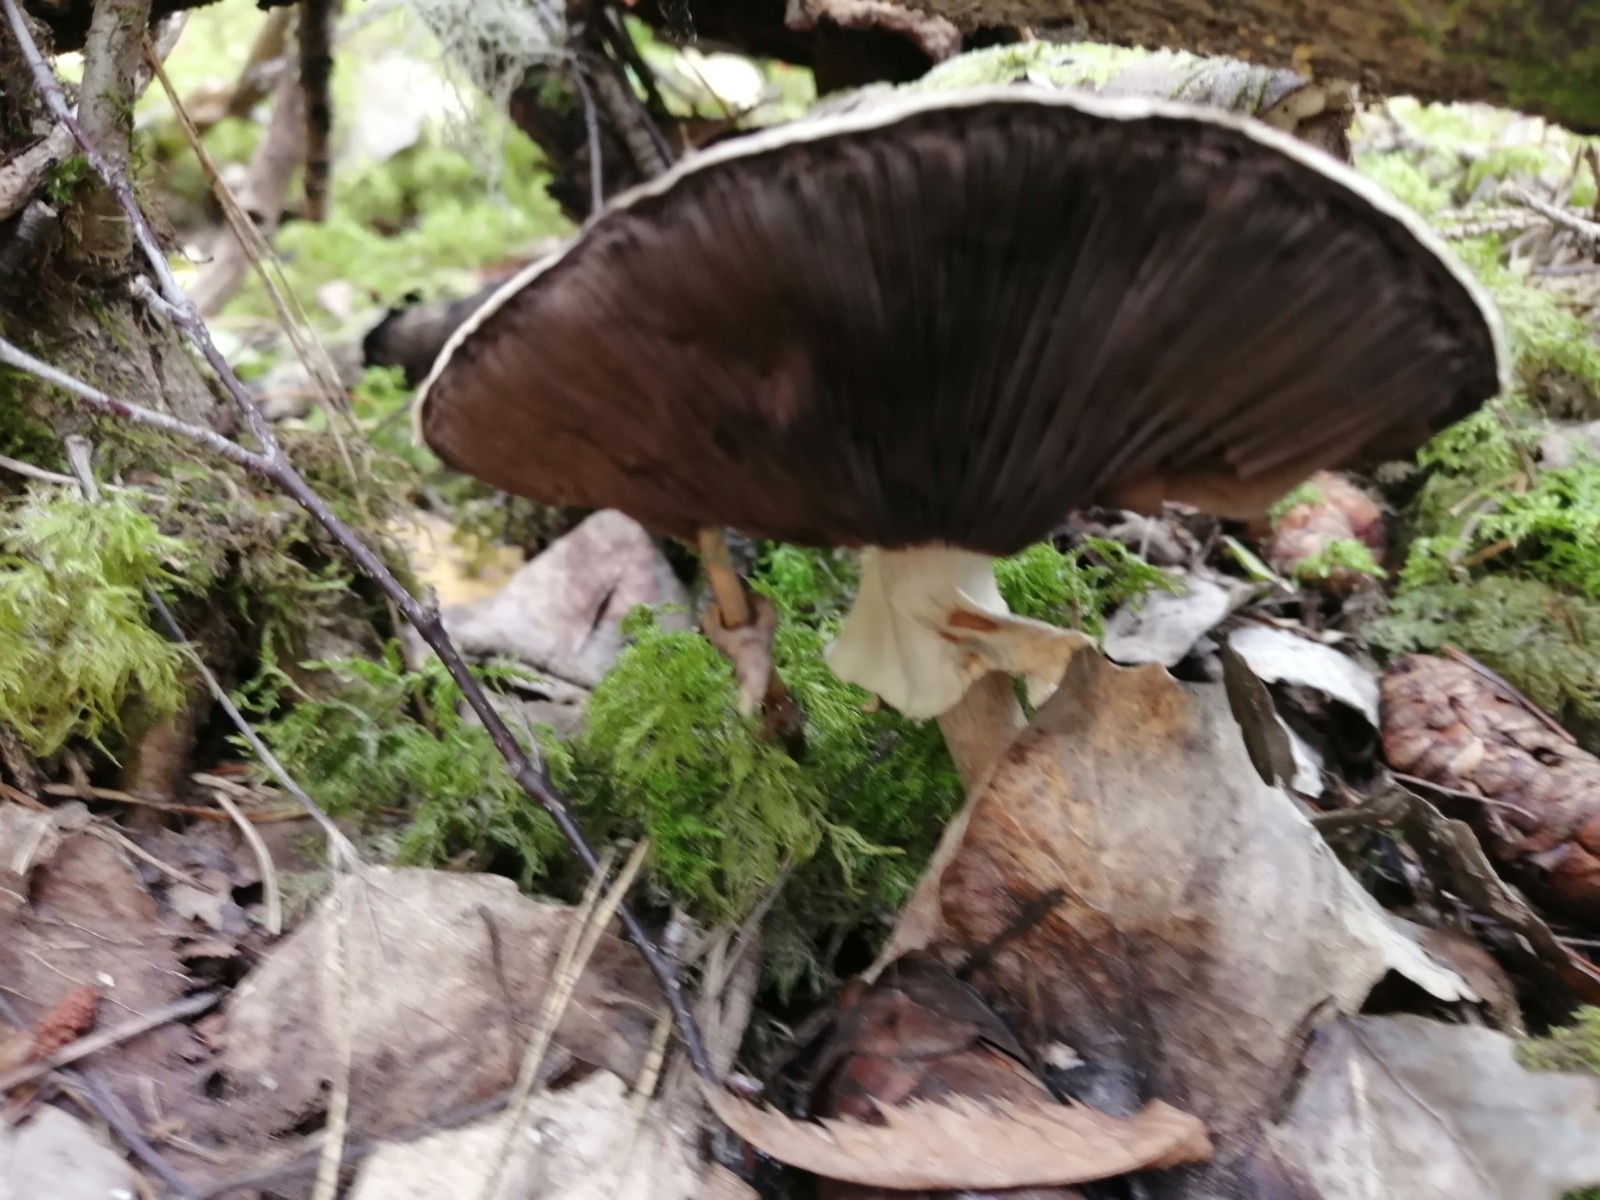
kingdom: Fungi
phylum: Basidiomycota
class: Agaricomycetes
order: Agaricales
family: Agaricaceae
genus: Agaricus
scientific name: Agaricus sylvicola
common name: Wood mushroom
